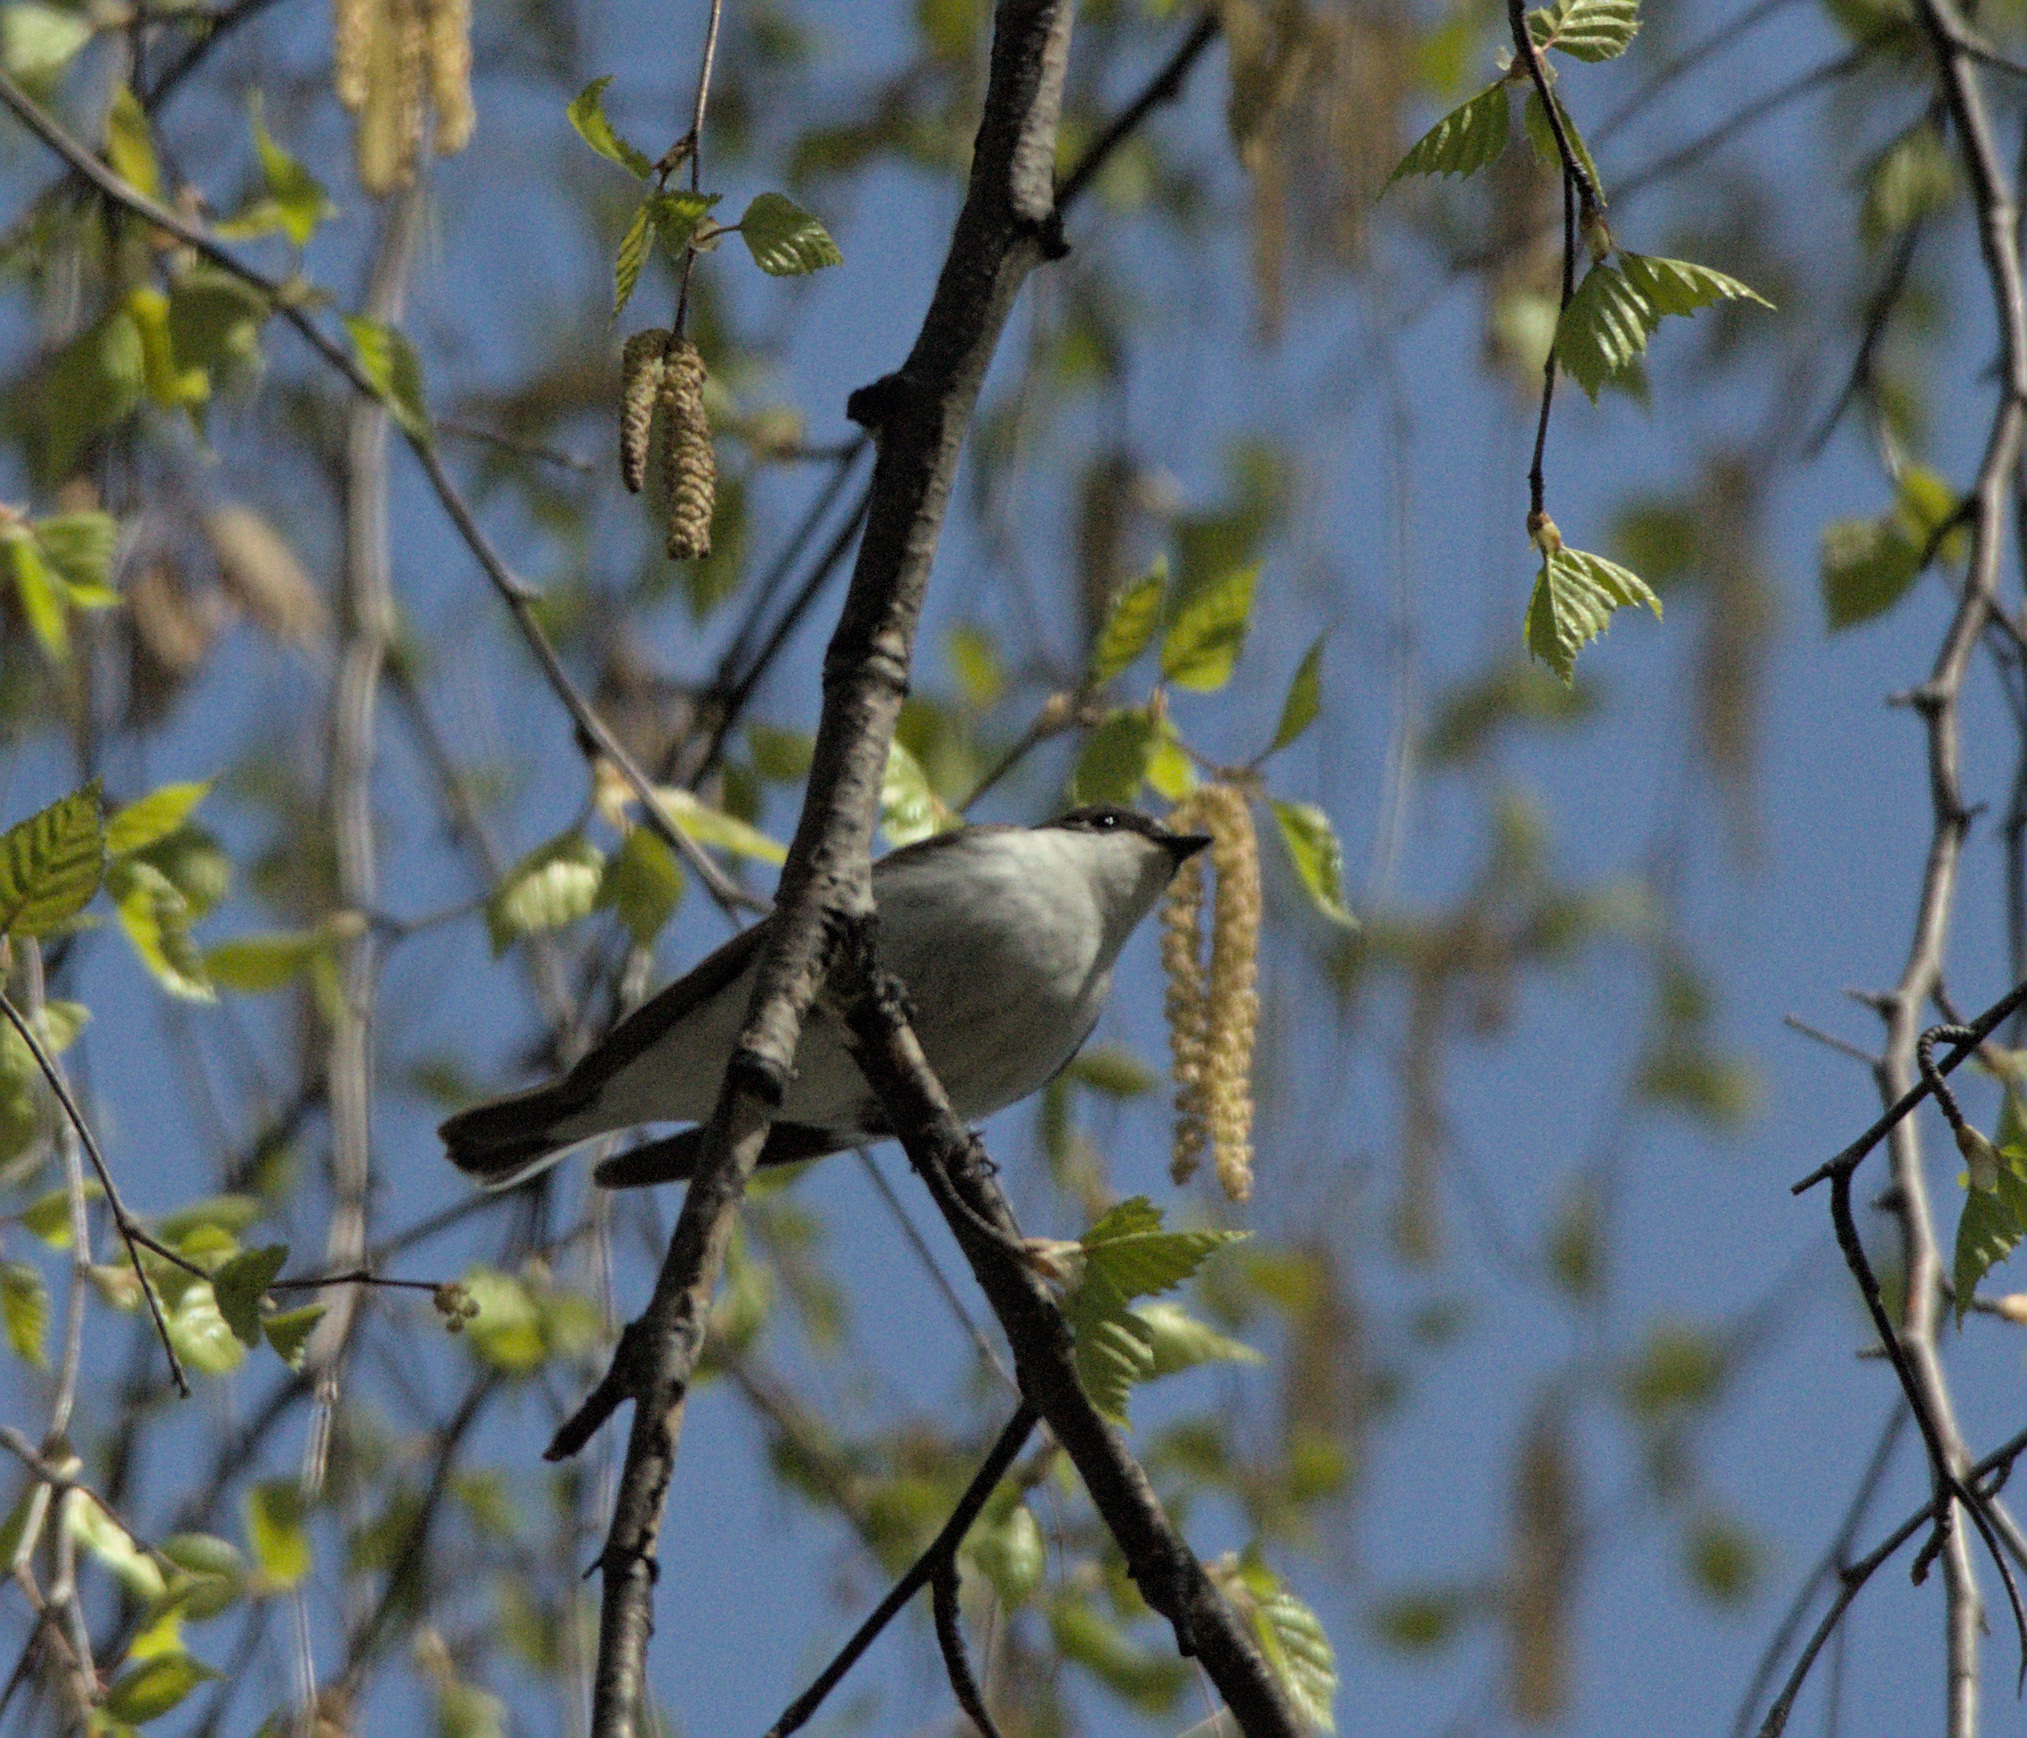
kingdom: Animalia
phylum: Chordata
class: Aves
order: Passeriformes
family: Muscicapidae
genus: Ficedula
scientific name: Ficedula hypoleuca
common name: European pied flycatcher
